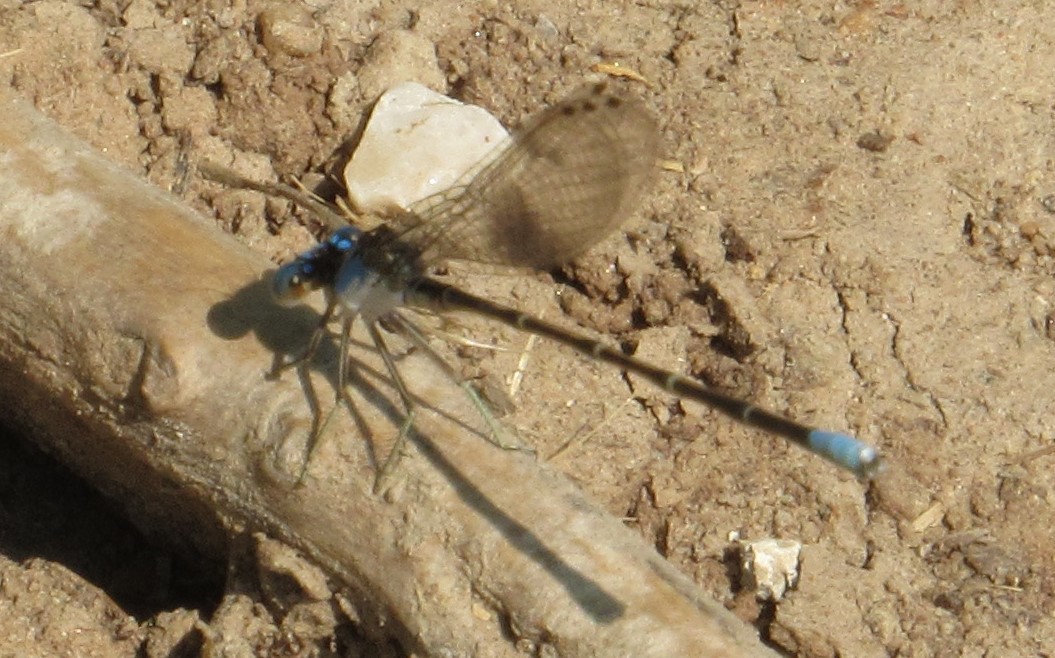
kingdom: Animalia
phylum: Arthropoda
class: Insecta
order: Odonata
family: Coenagrionidae
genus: Argia
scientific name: Argia apicalis
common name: Blue-fronted dancer
